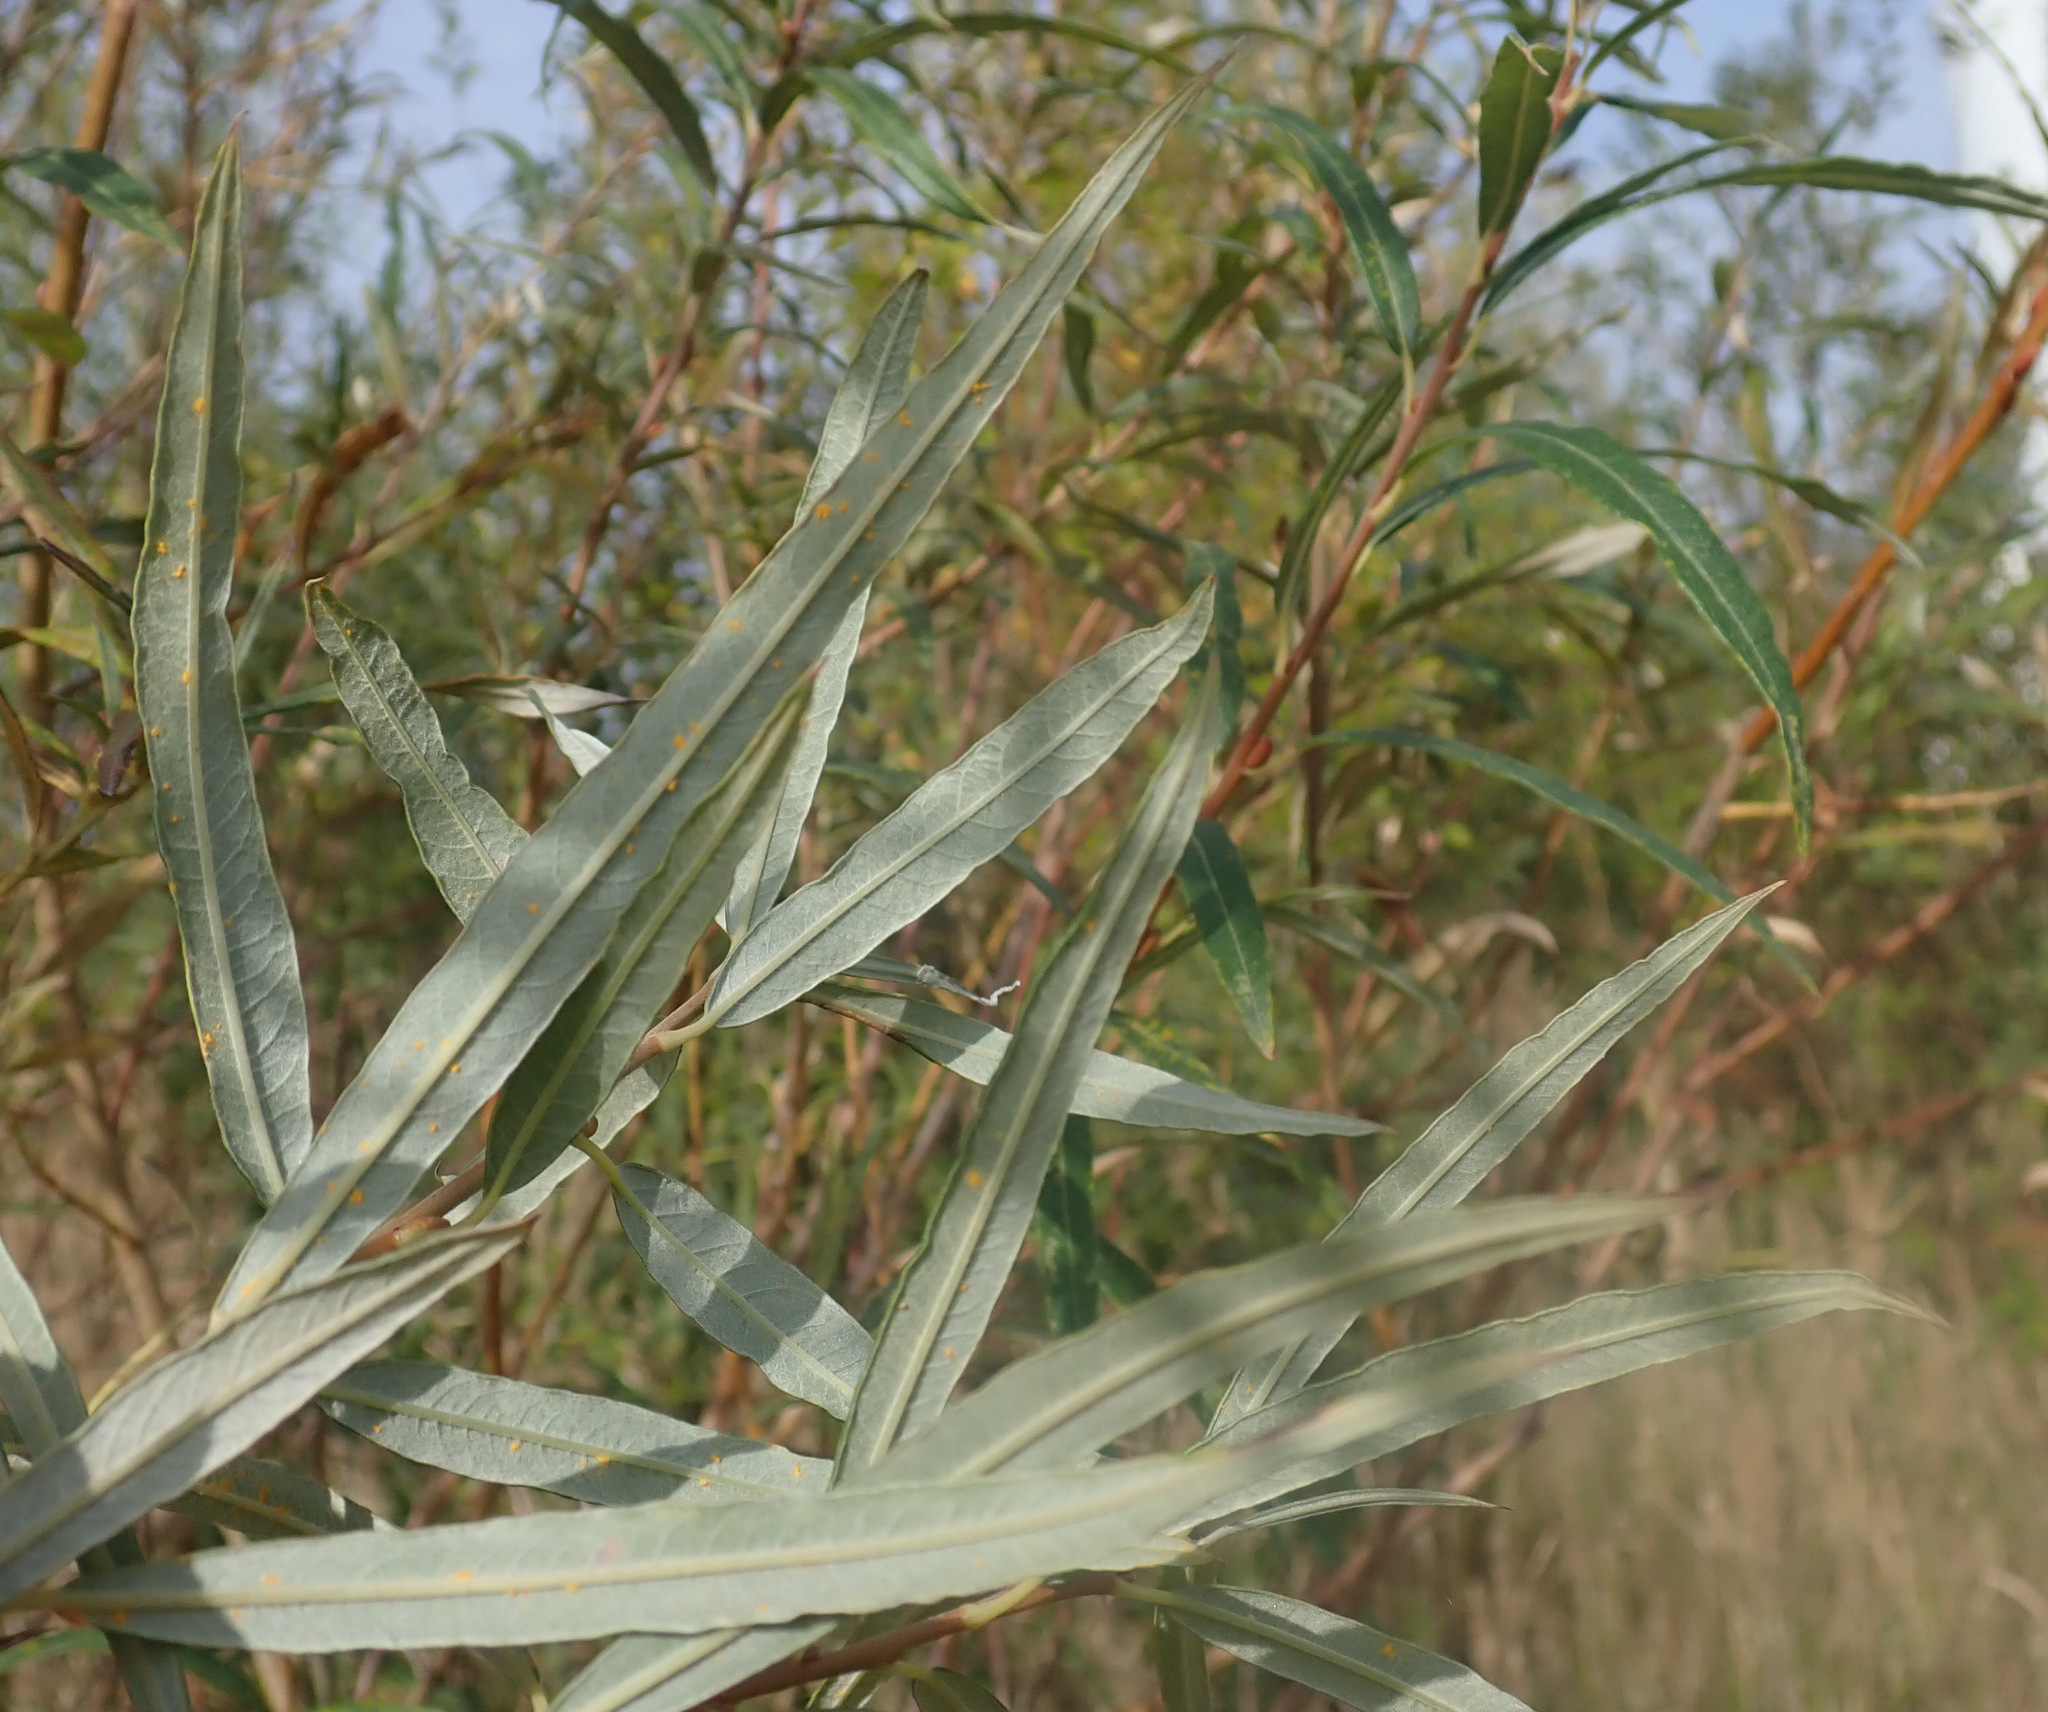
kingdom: Plantae
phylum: Tracheophyta
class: Magnoliopsida
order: Malpighiales
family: Salicaceae
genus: Salix
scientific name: Salix viminalis
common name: Osier
